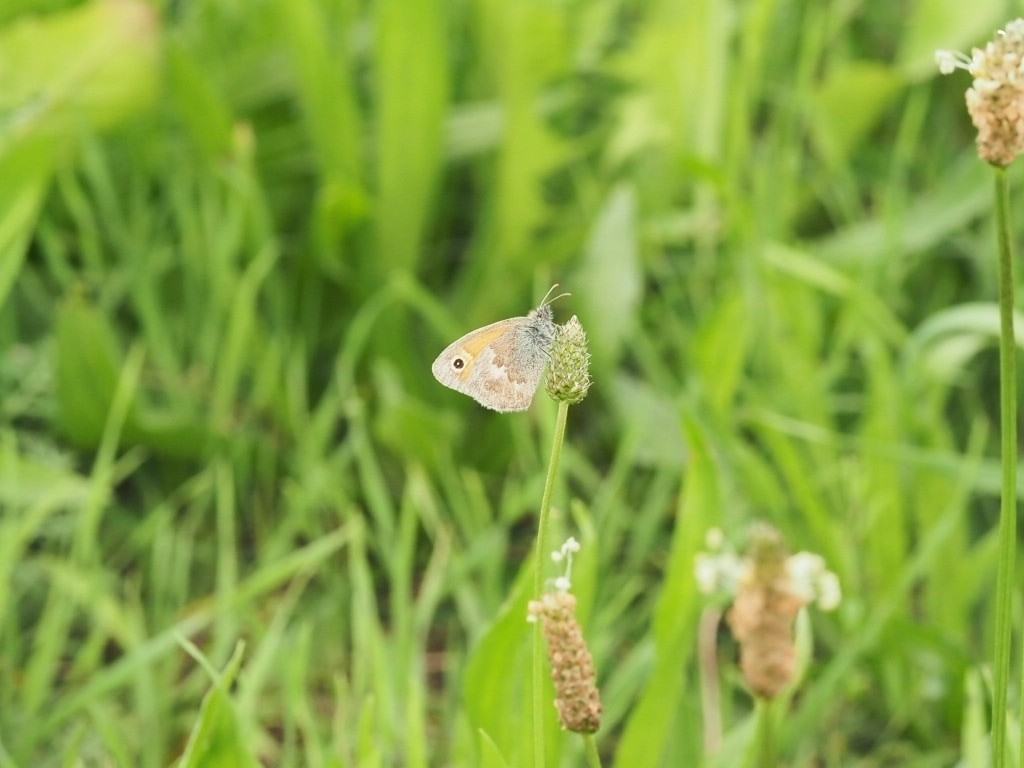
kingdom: Animalia
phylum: Arthropoda
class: Insecta
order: Lepidoptera
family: Nymphalidae
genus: Coenonympha
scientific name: Coenonympha pamphilus
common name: Small heath
